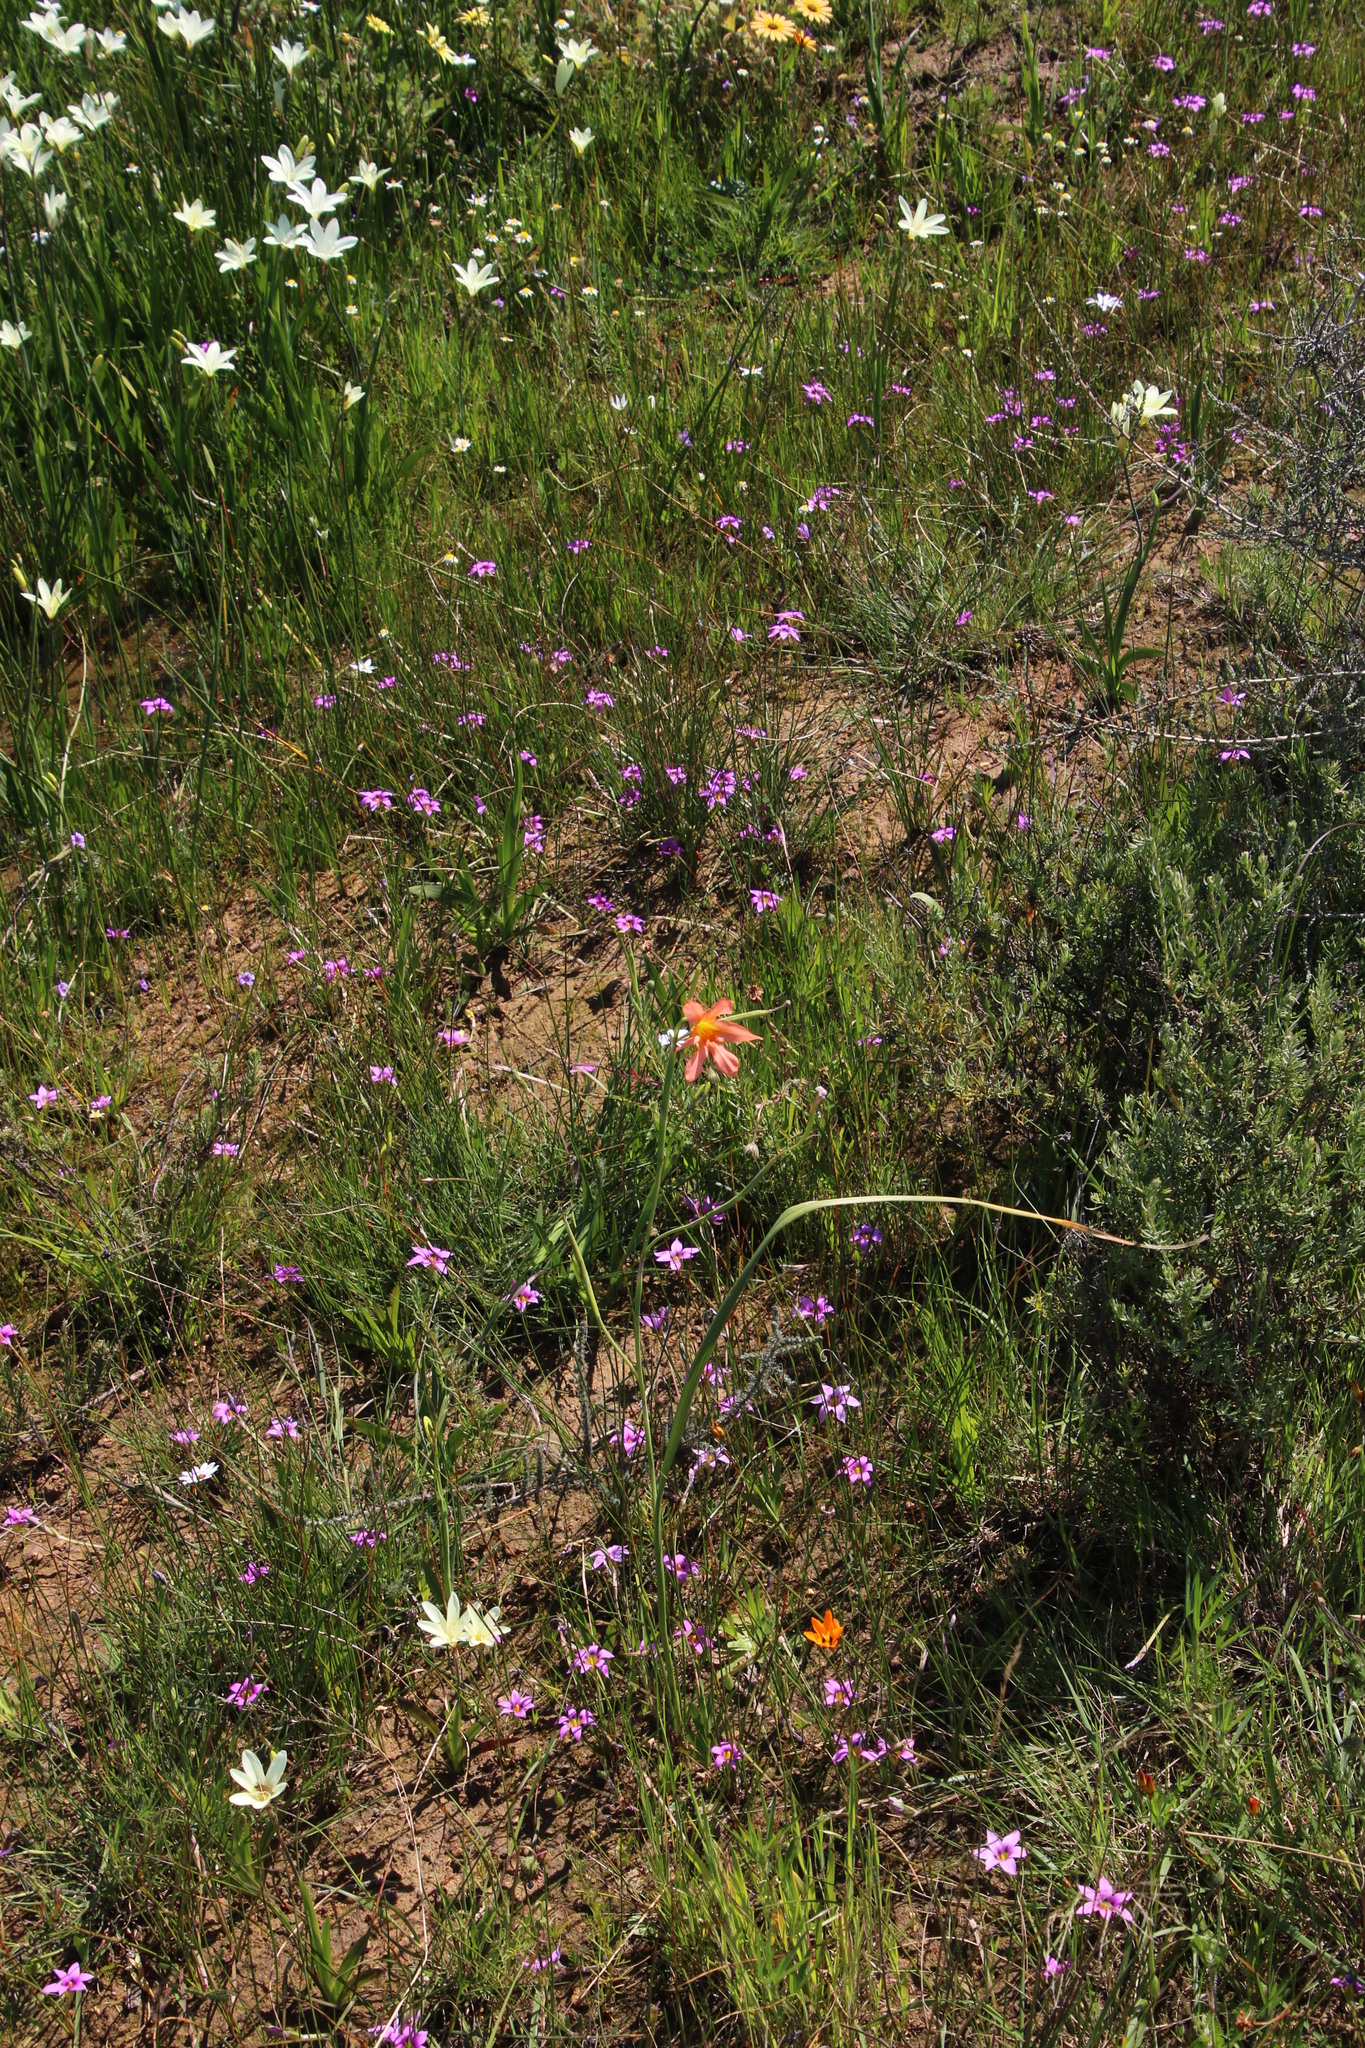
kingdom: Plantae
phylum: Tracheophyta
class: Liliopsida
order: Asparagales
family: Iridaceae
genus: Moraea
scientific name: Moraea flaccida
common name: One-leaf cape-tulip
